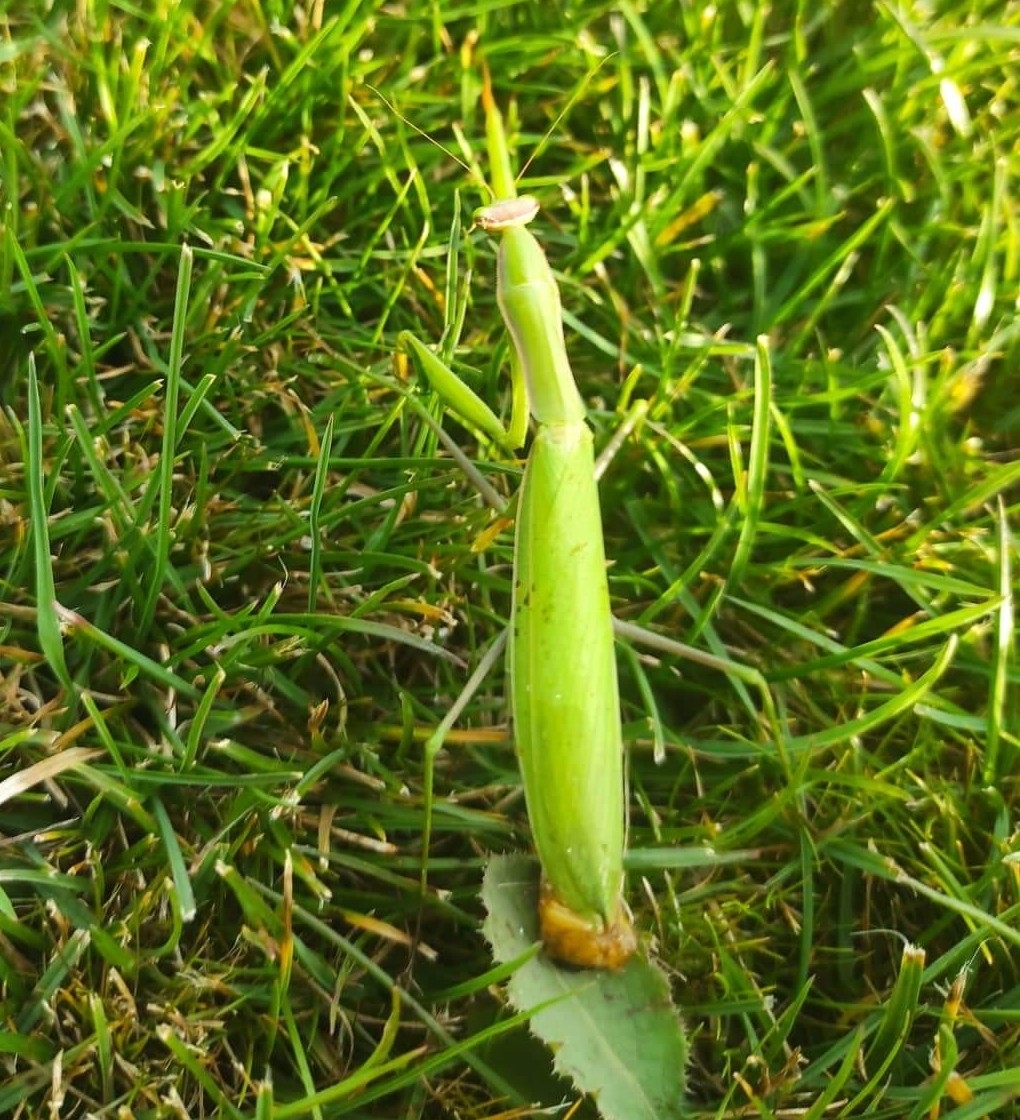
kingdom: Animalia
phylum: Arthropoda
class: Insecta
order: Mantodea
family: Mantidae
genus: Mantis
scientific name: Mantis religiosa
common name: Praying mantis
